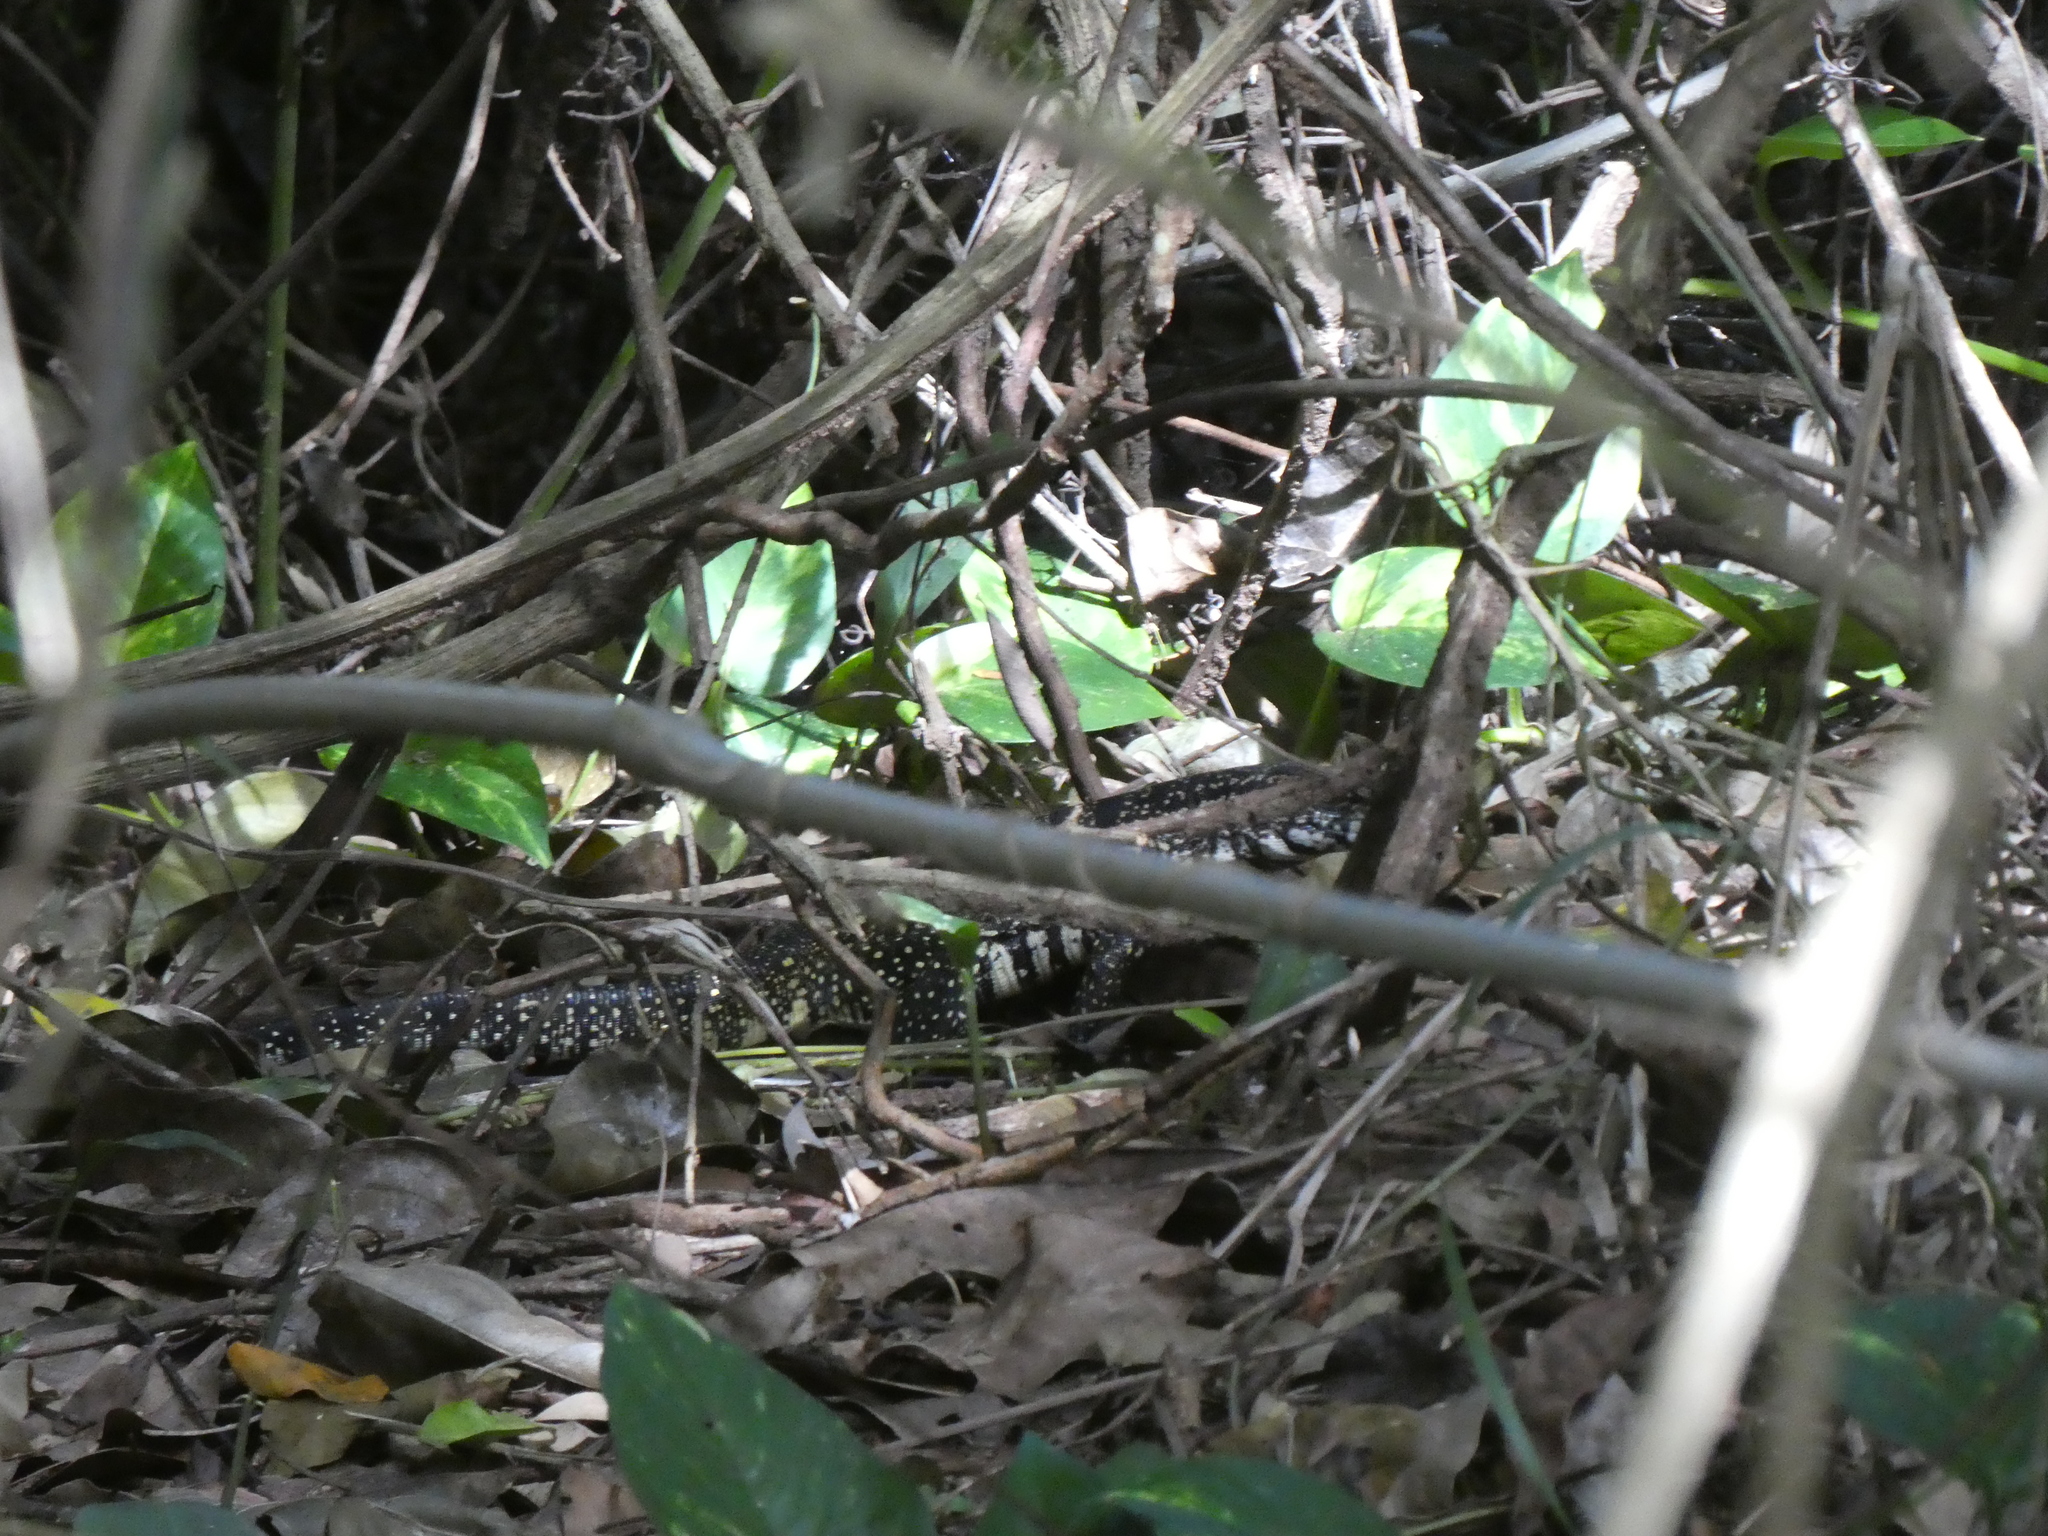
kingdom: Animalia
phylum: Chordata
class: Squamata
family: Teiidae
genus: Salvator
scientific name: Salvator merianae
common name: Argentine black and white tegu
